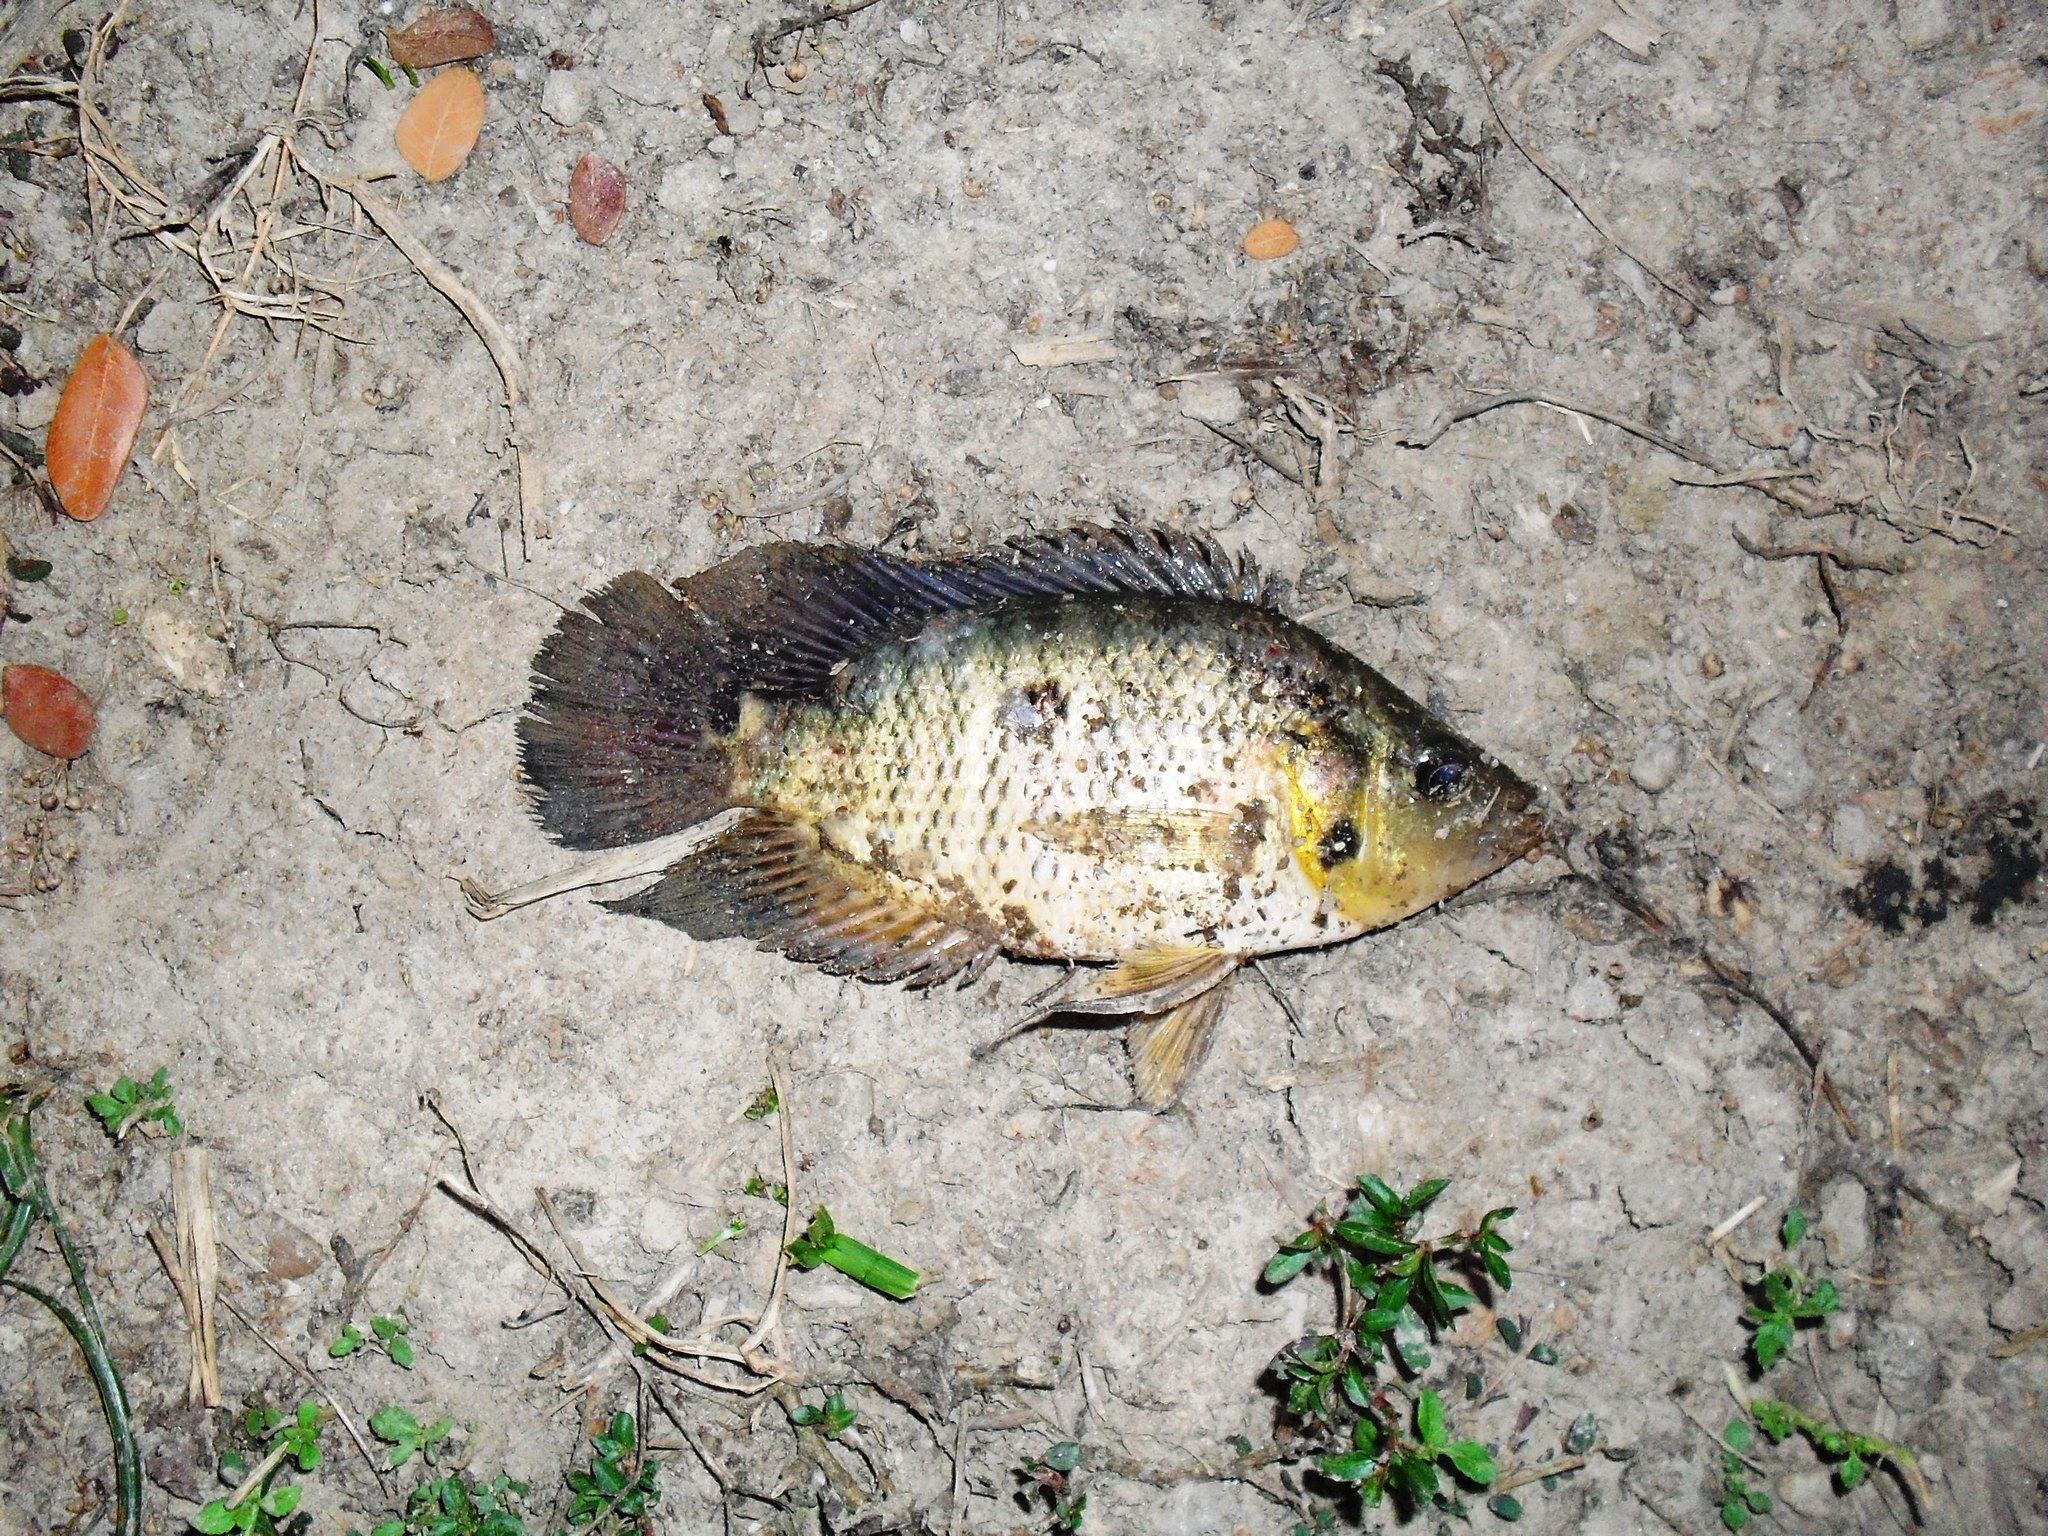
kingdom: Animalia
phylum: Chordata
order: Perciformes
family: Cichlidae
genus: Caquetaia
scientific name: Caquetaia kraussii
